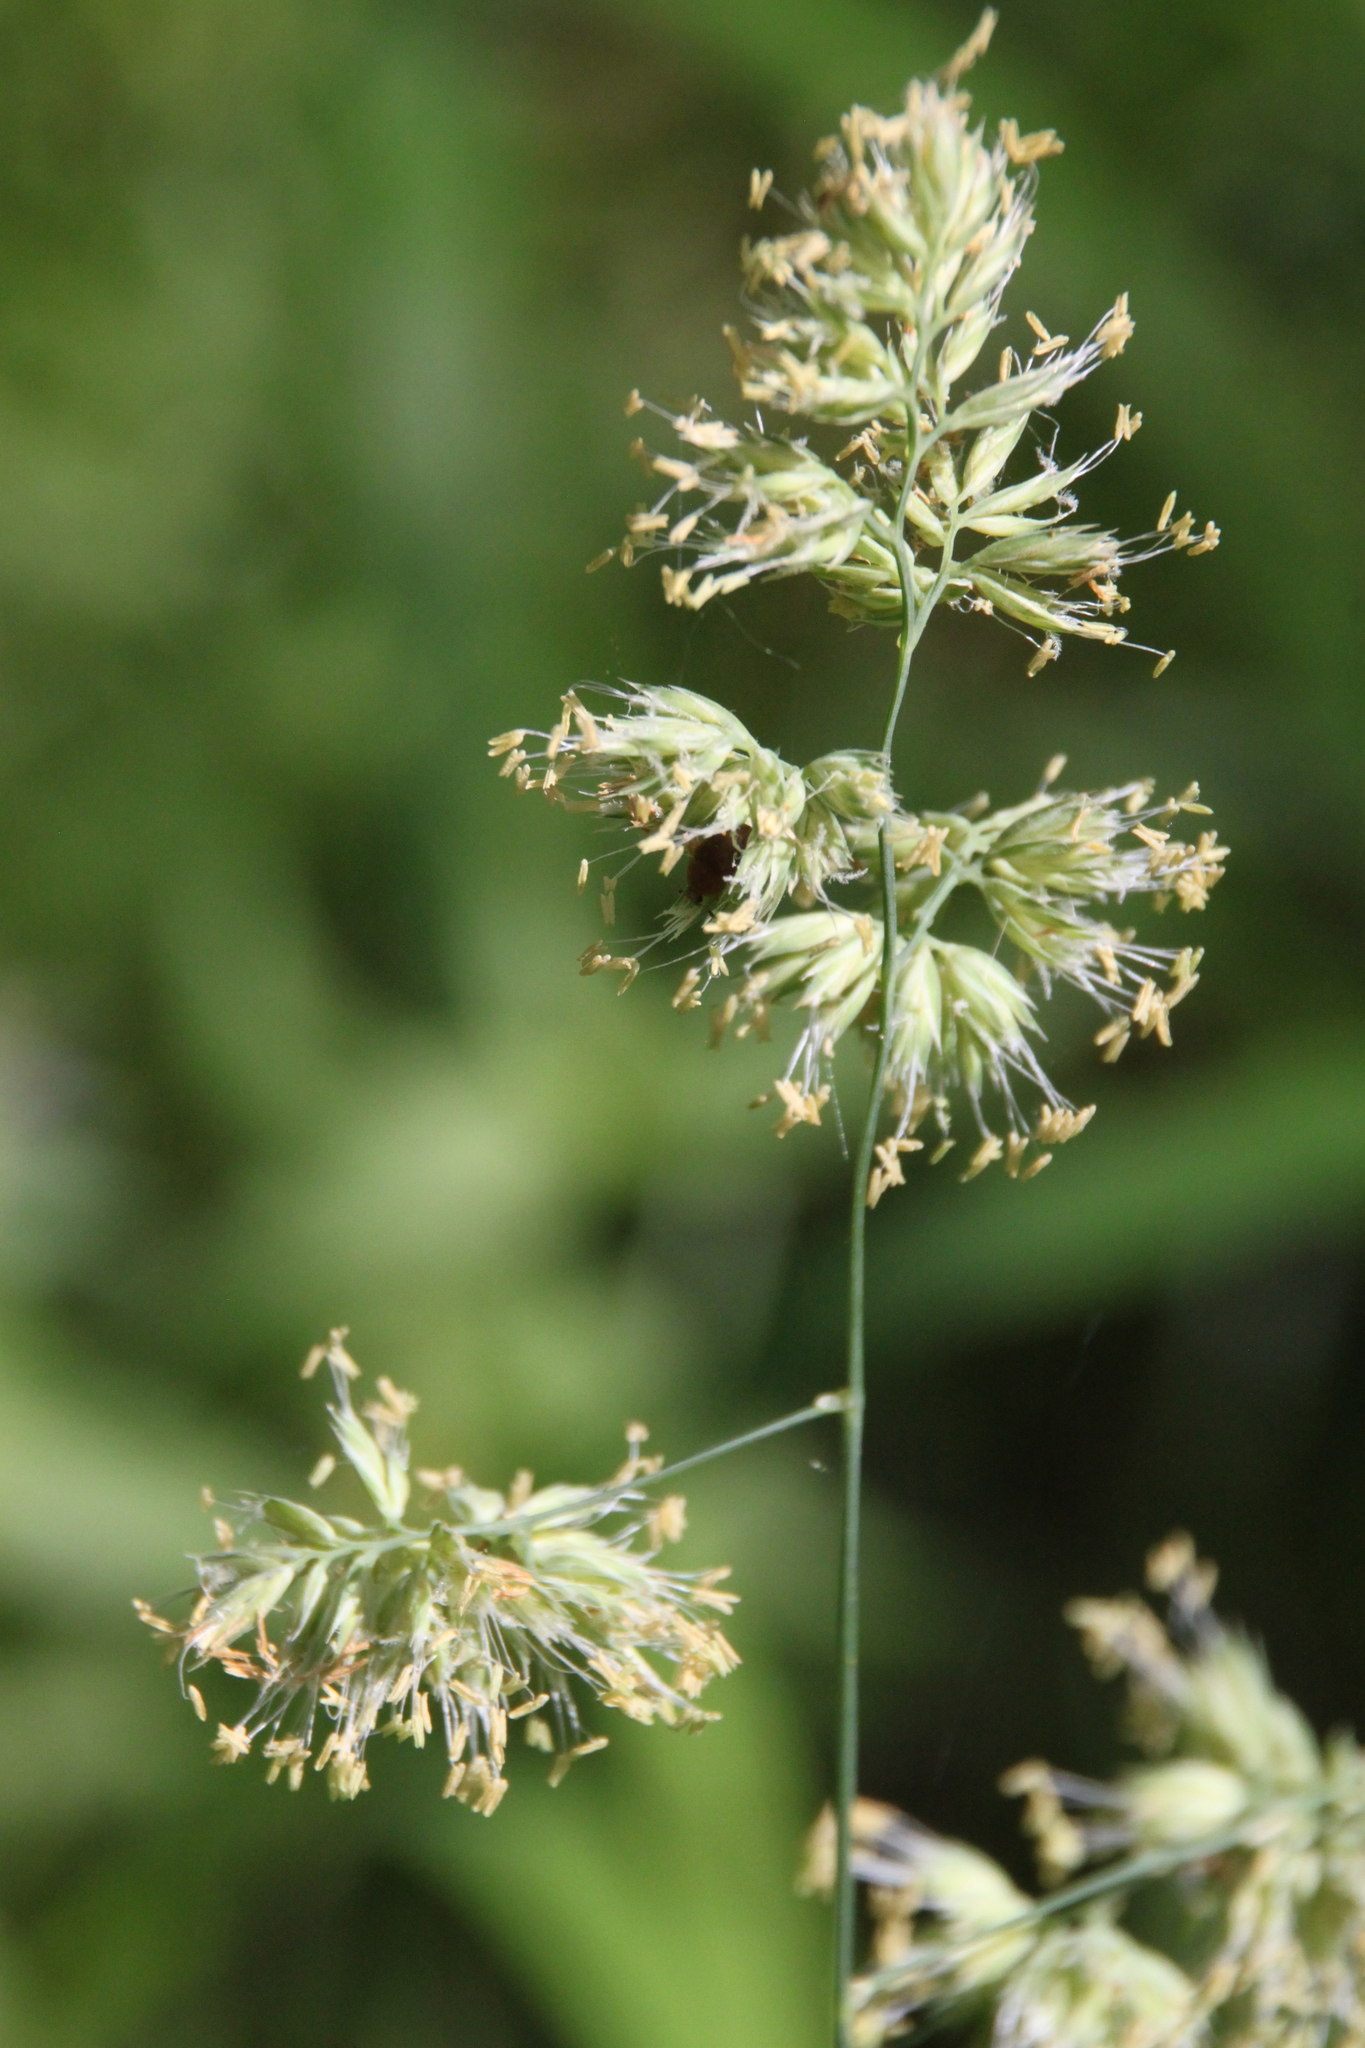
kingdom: Plantae
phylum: Tracheophyta
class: Liliopsida
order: Poales
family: Poaceae
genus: Dactylis
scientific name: Dactylis glomerata
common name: Orchardgrass
